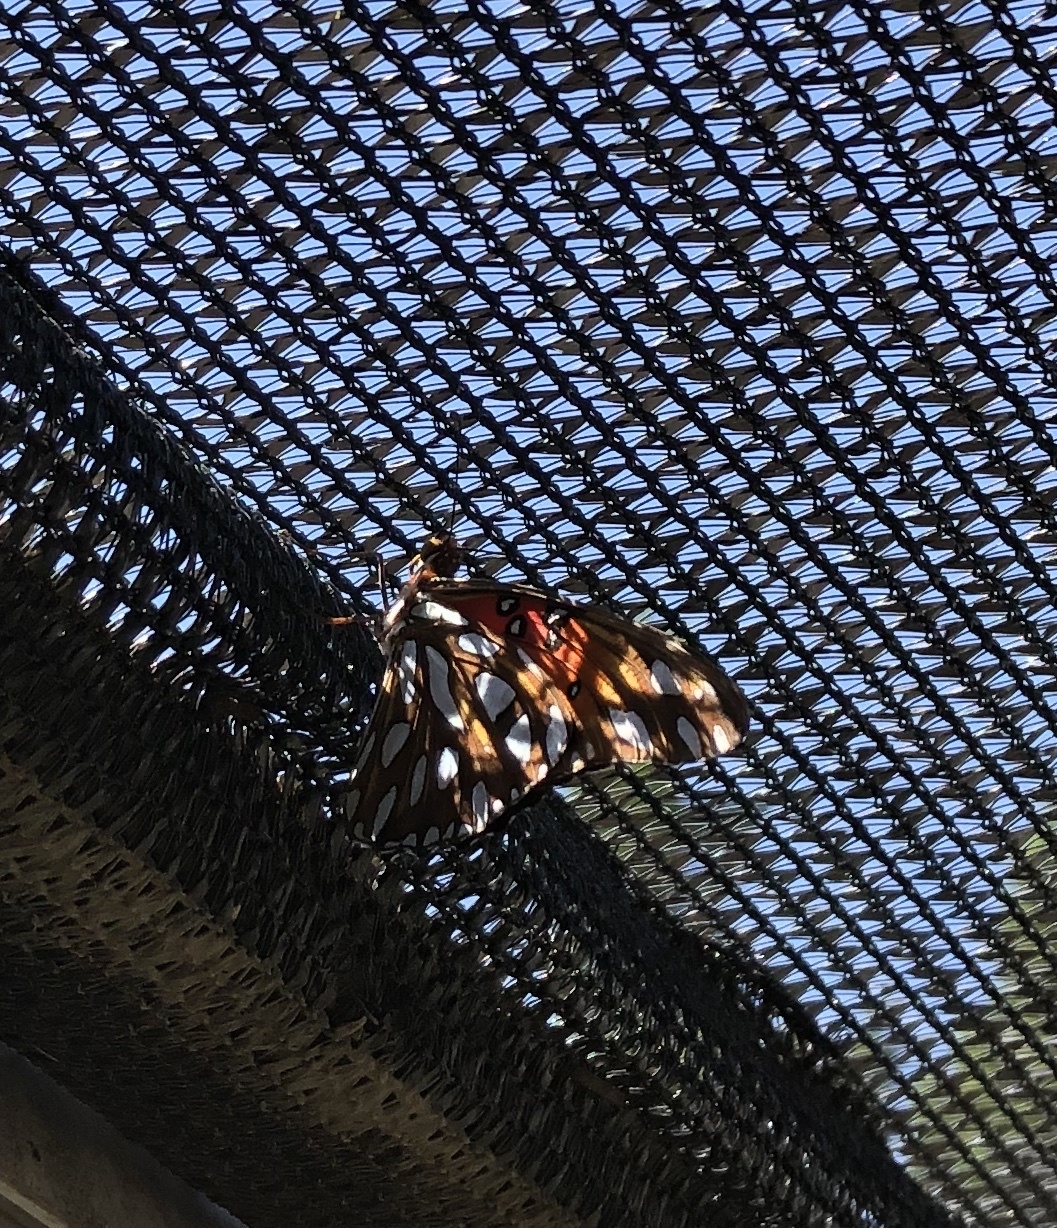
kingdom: Animalia
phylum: Arthropoda
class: Insecta
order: Lepidoptera
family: Nymphalidae
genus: Dione
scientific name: Dione vanillae
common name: Gulf fritillary
